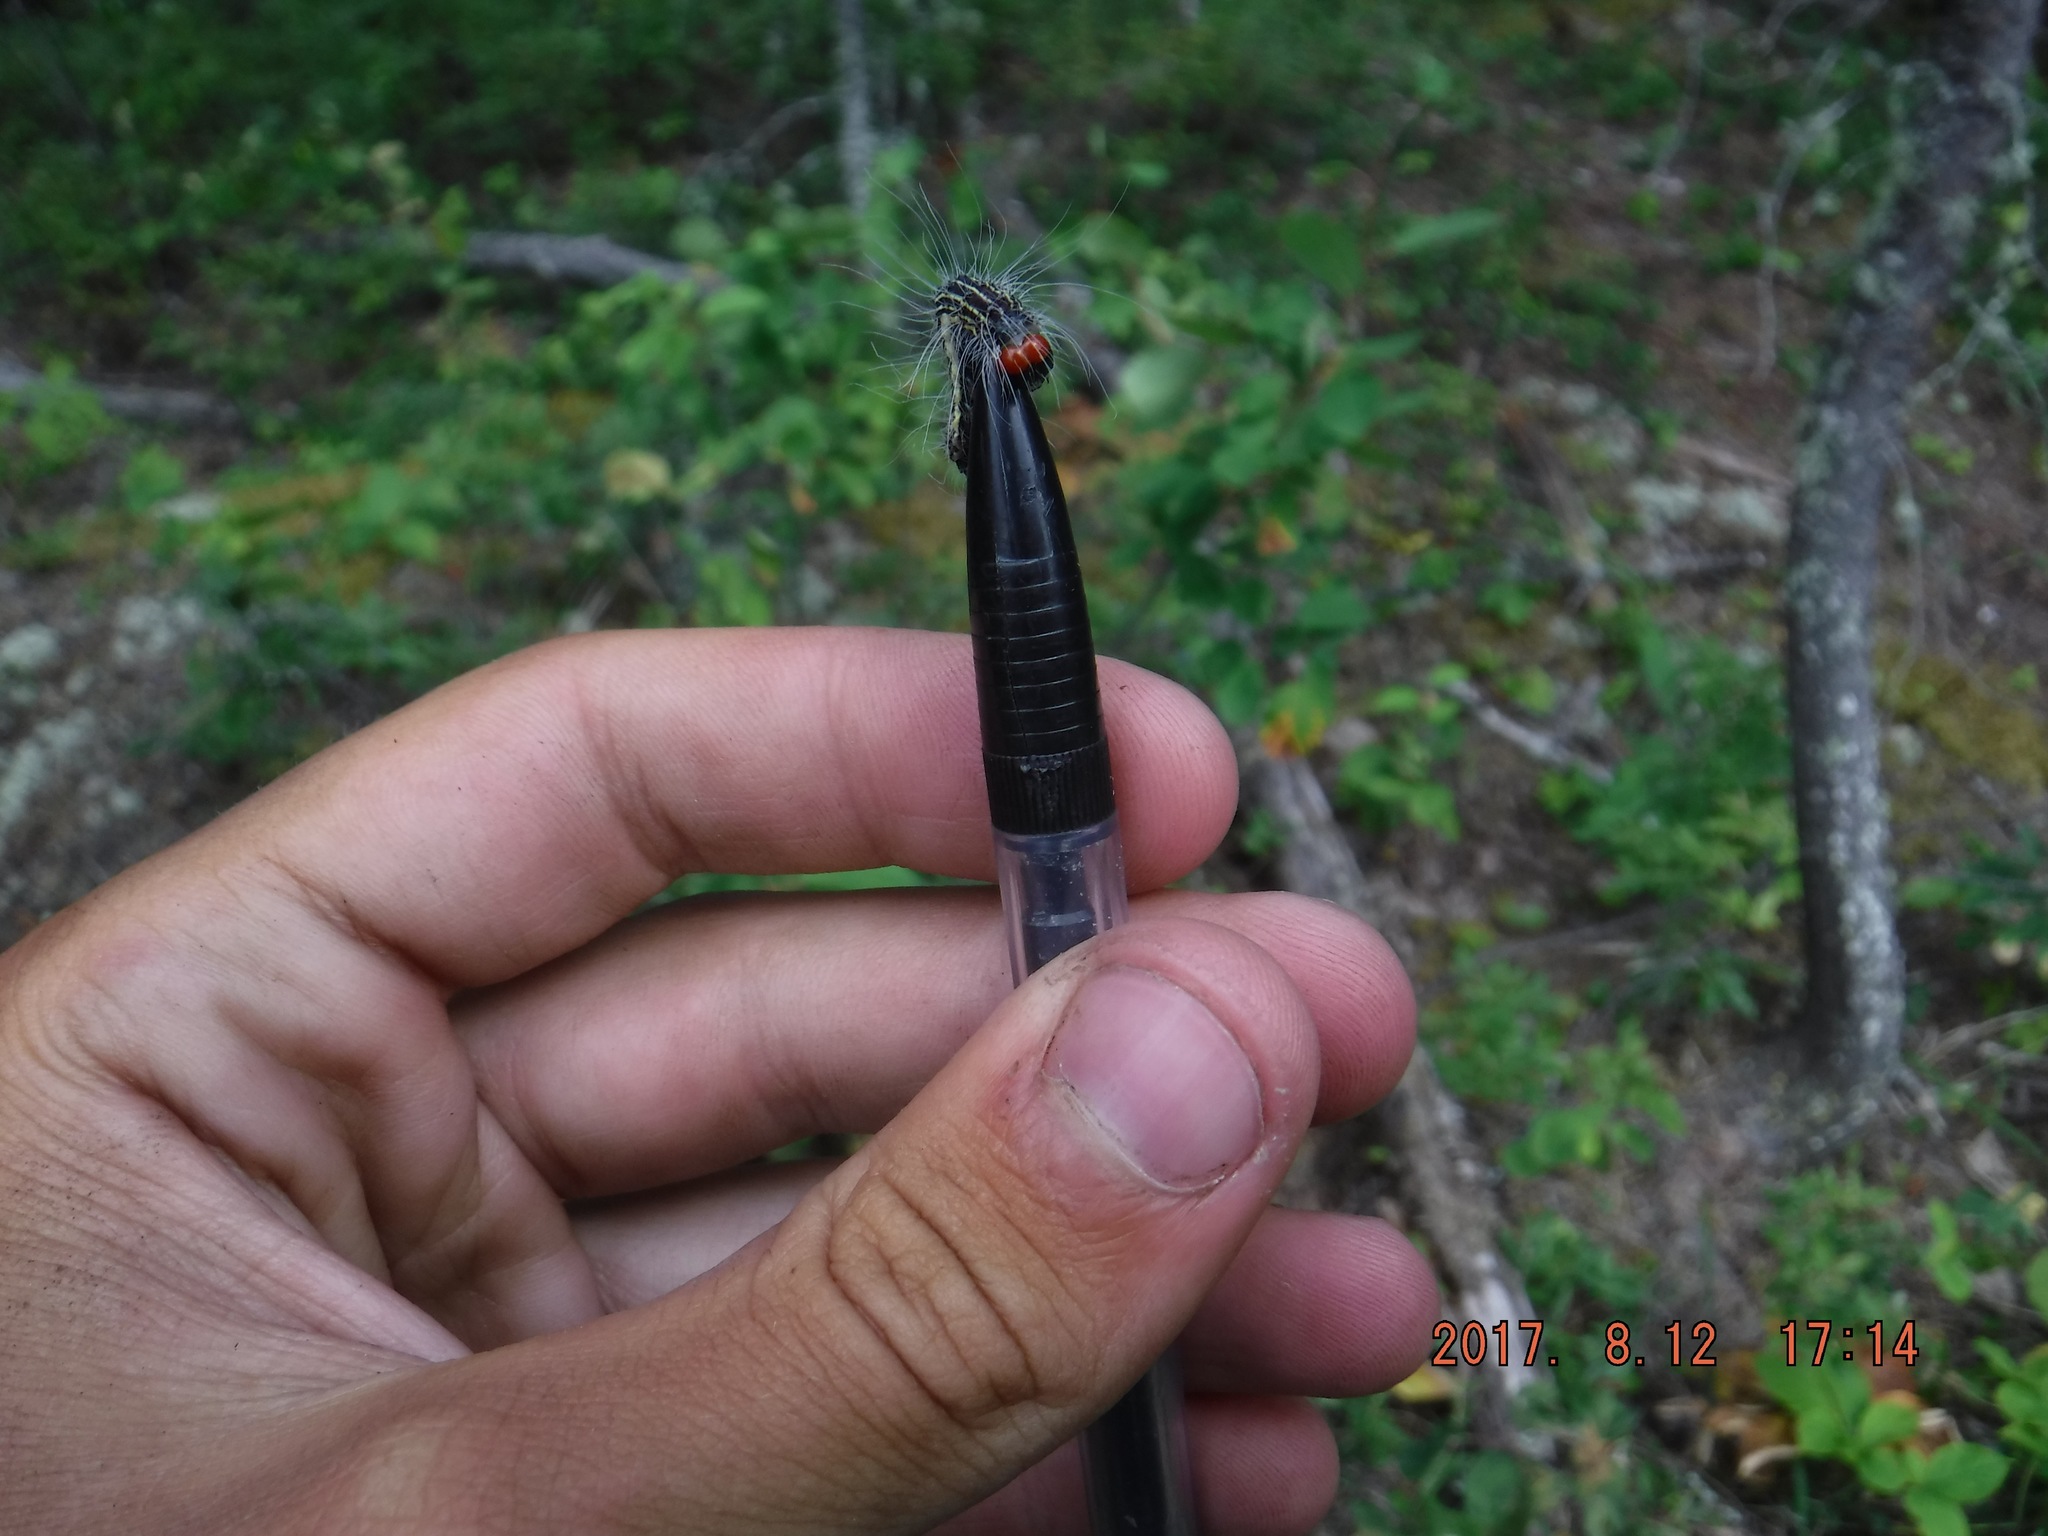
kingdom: Animalia
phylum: Arthropoda
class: Insecta
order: Lepidoptera
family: Noctuidae
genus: Acronicta
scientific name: Acronicta radcliffei
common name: Radcliffe's dagger
